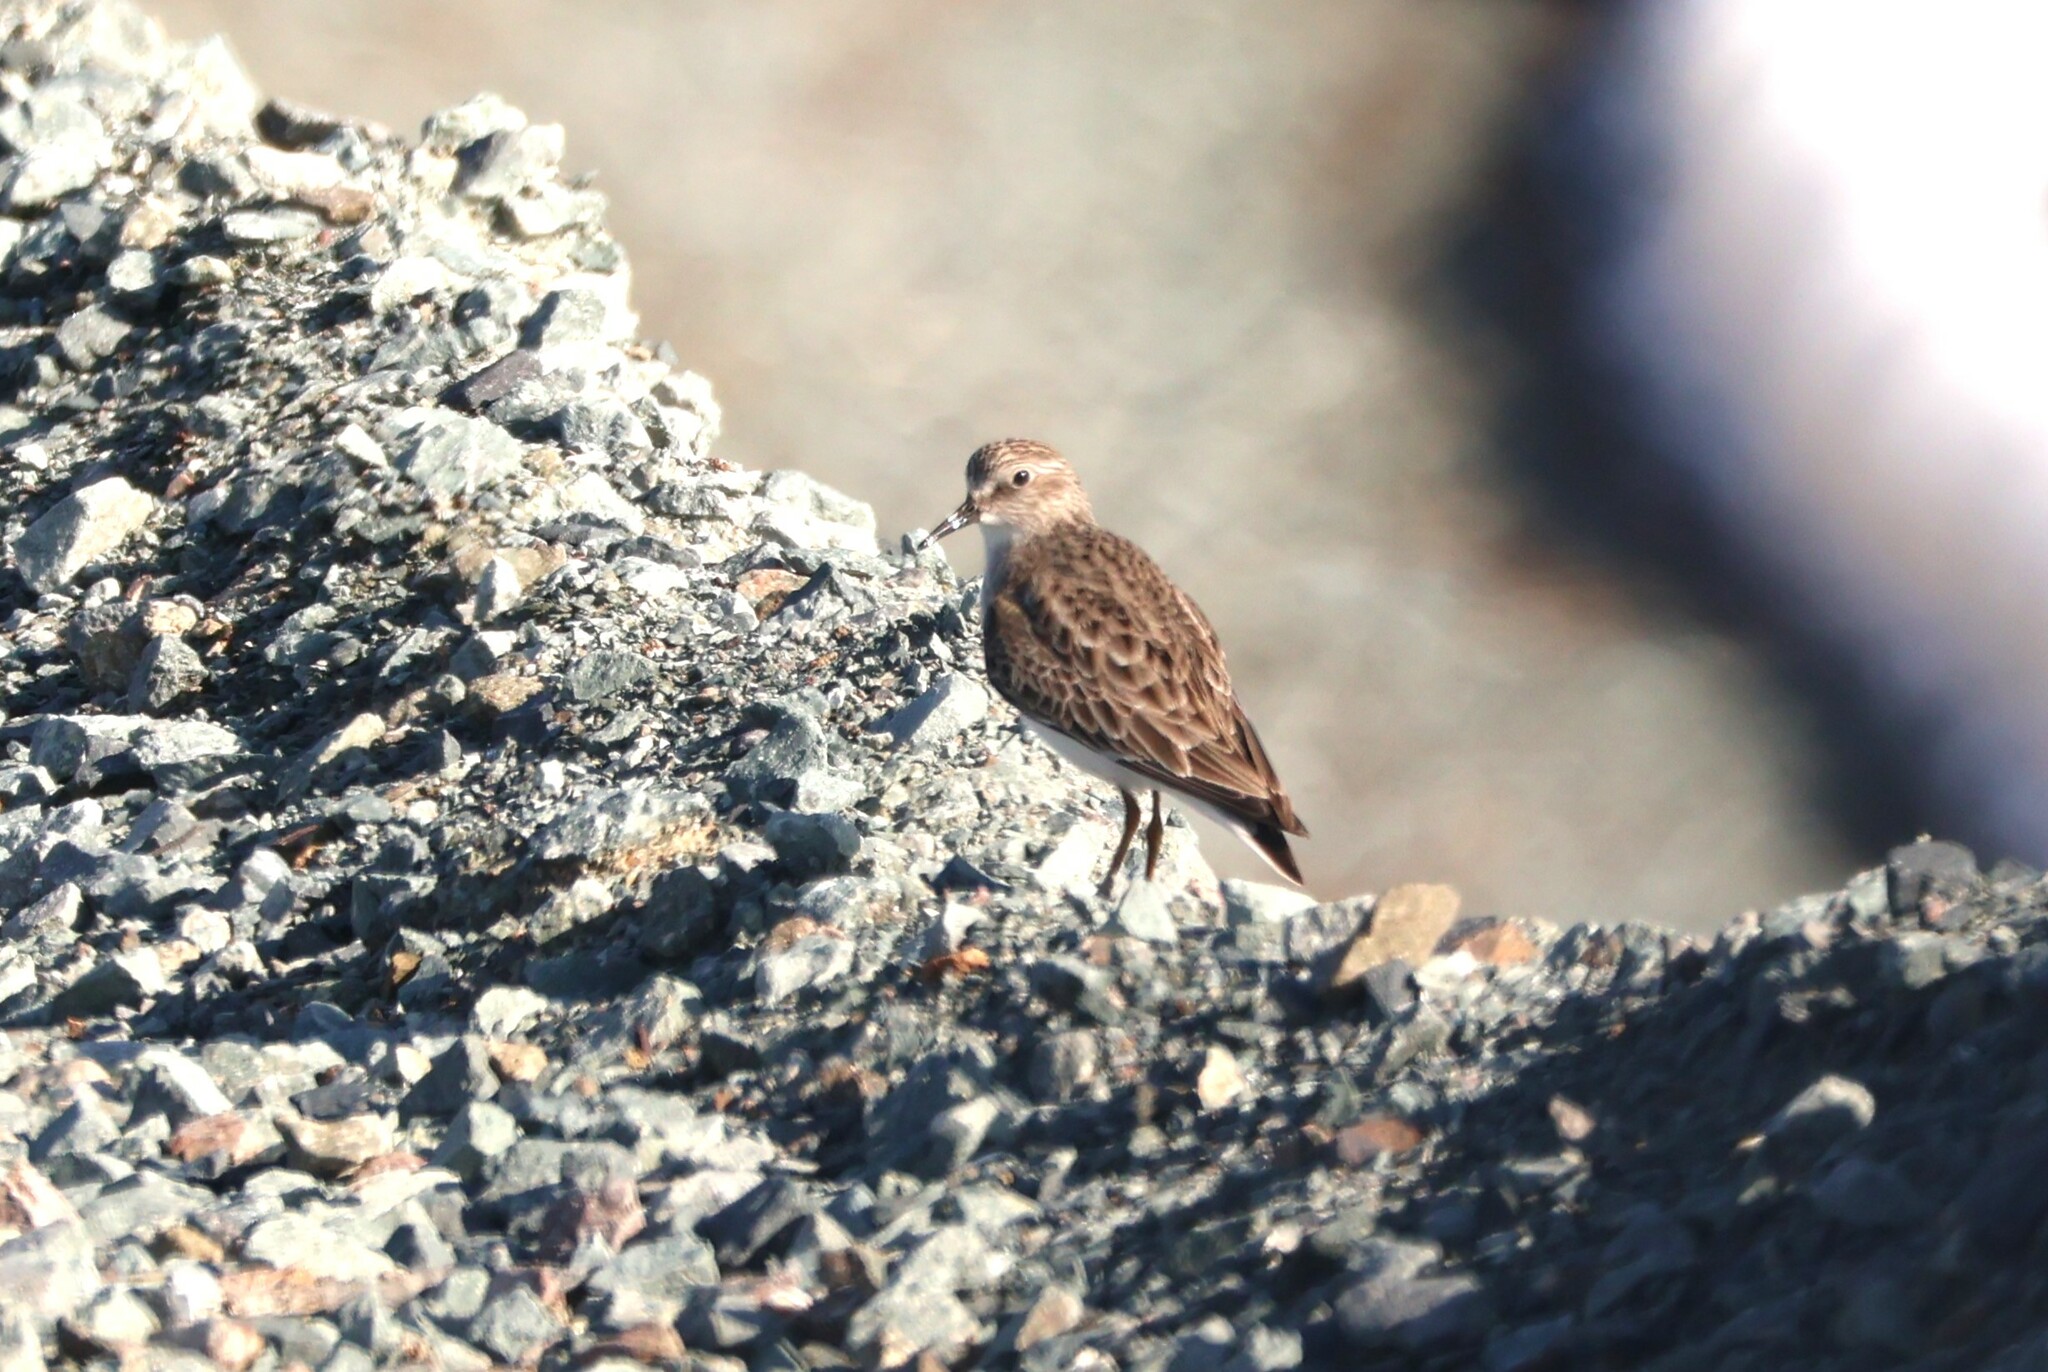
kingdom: Animalia
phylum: Chordata
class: Aves
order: Charadriiformes
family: Scolopacidae
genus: Calidris
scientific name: Calidris minutilla
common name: Least sandpiper
